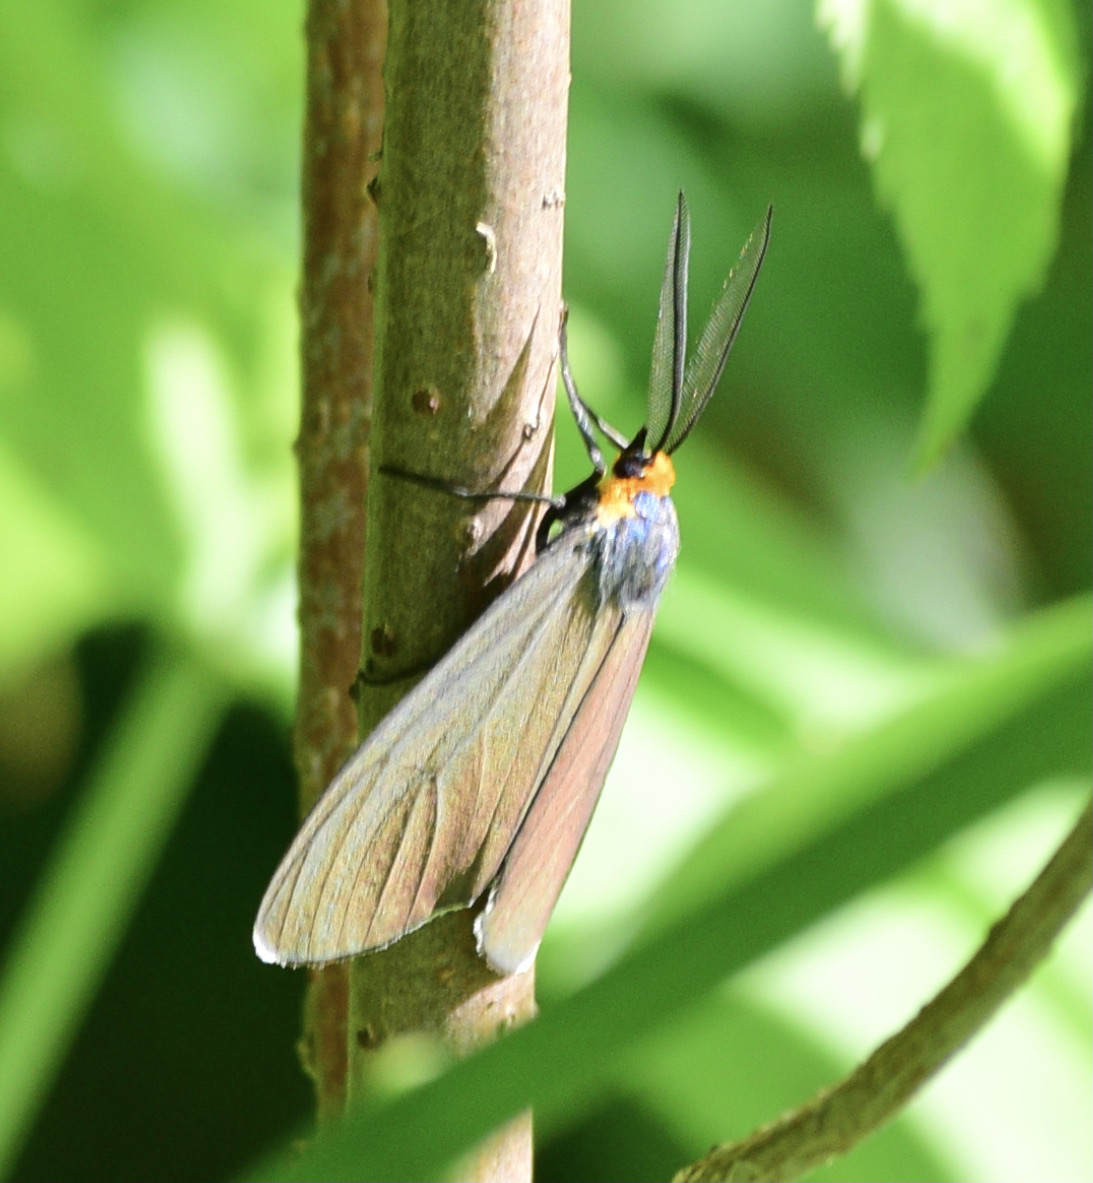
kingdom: Animalia
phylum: Arthropoda
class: Insecta
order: Lepidoptera
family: Erebidae
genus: Ctenucha
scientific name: Ctenucha virginica
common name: Virginia ctenucha moth
